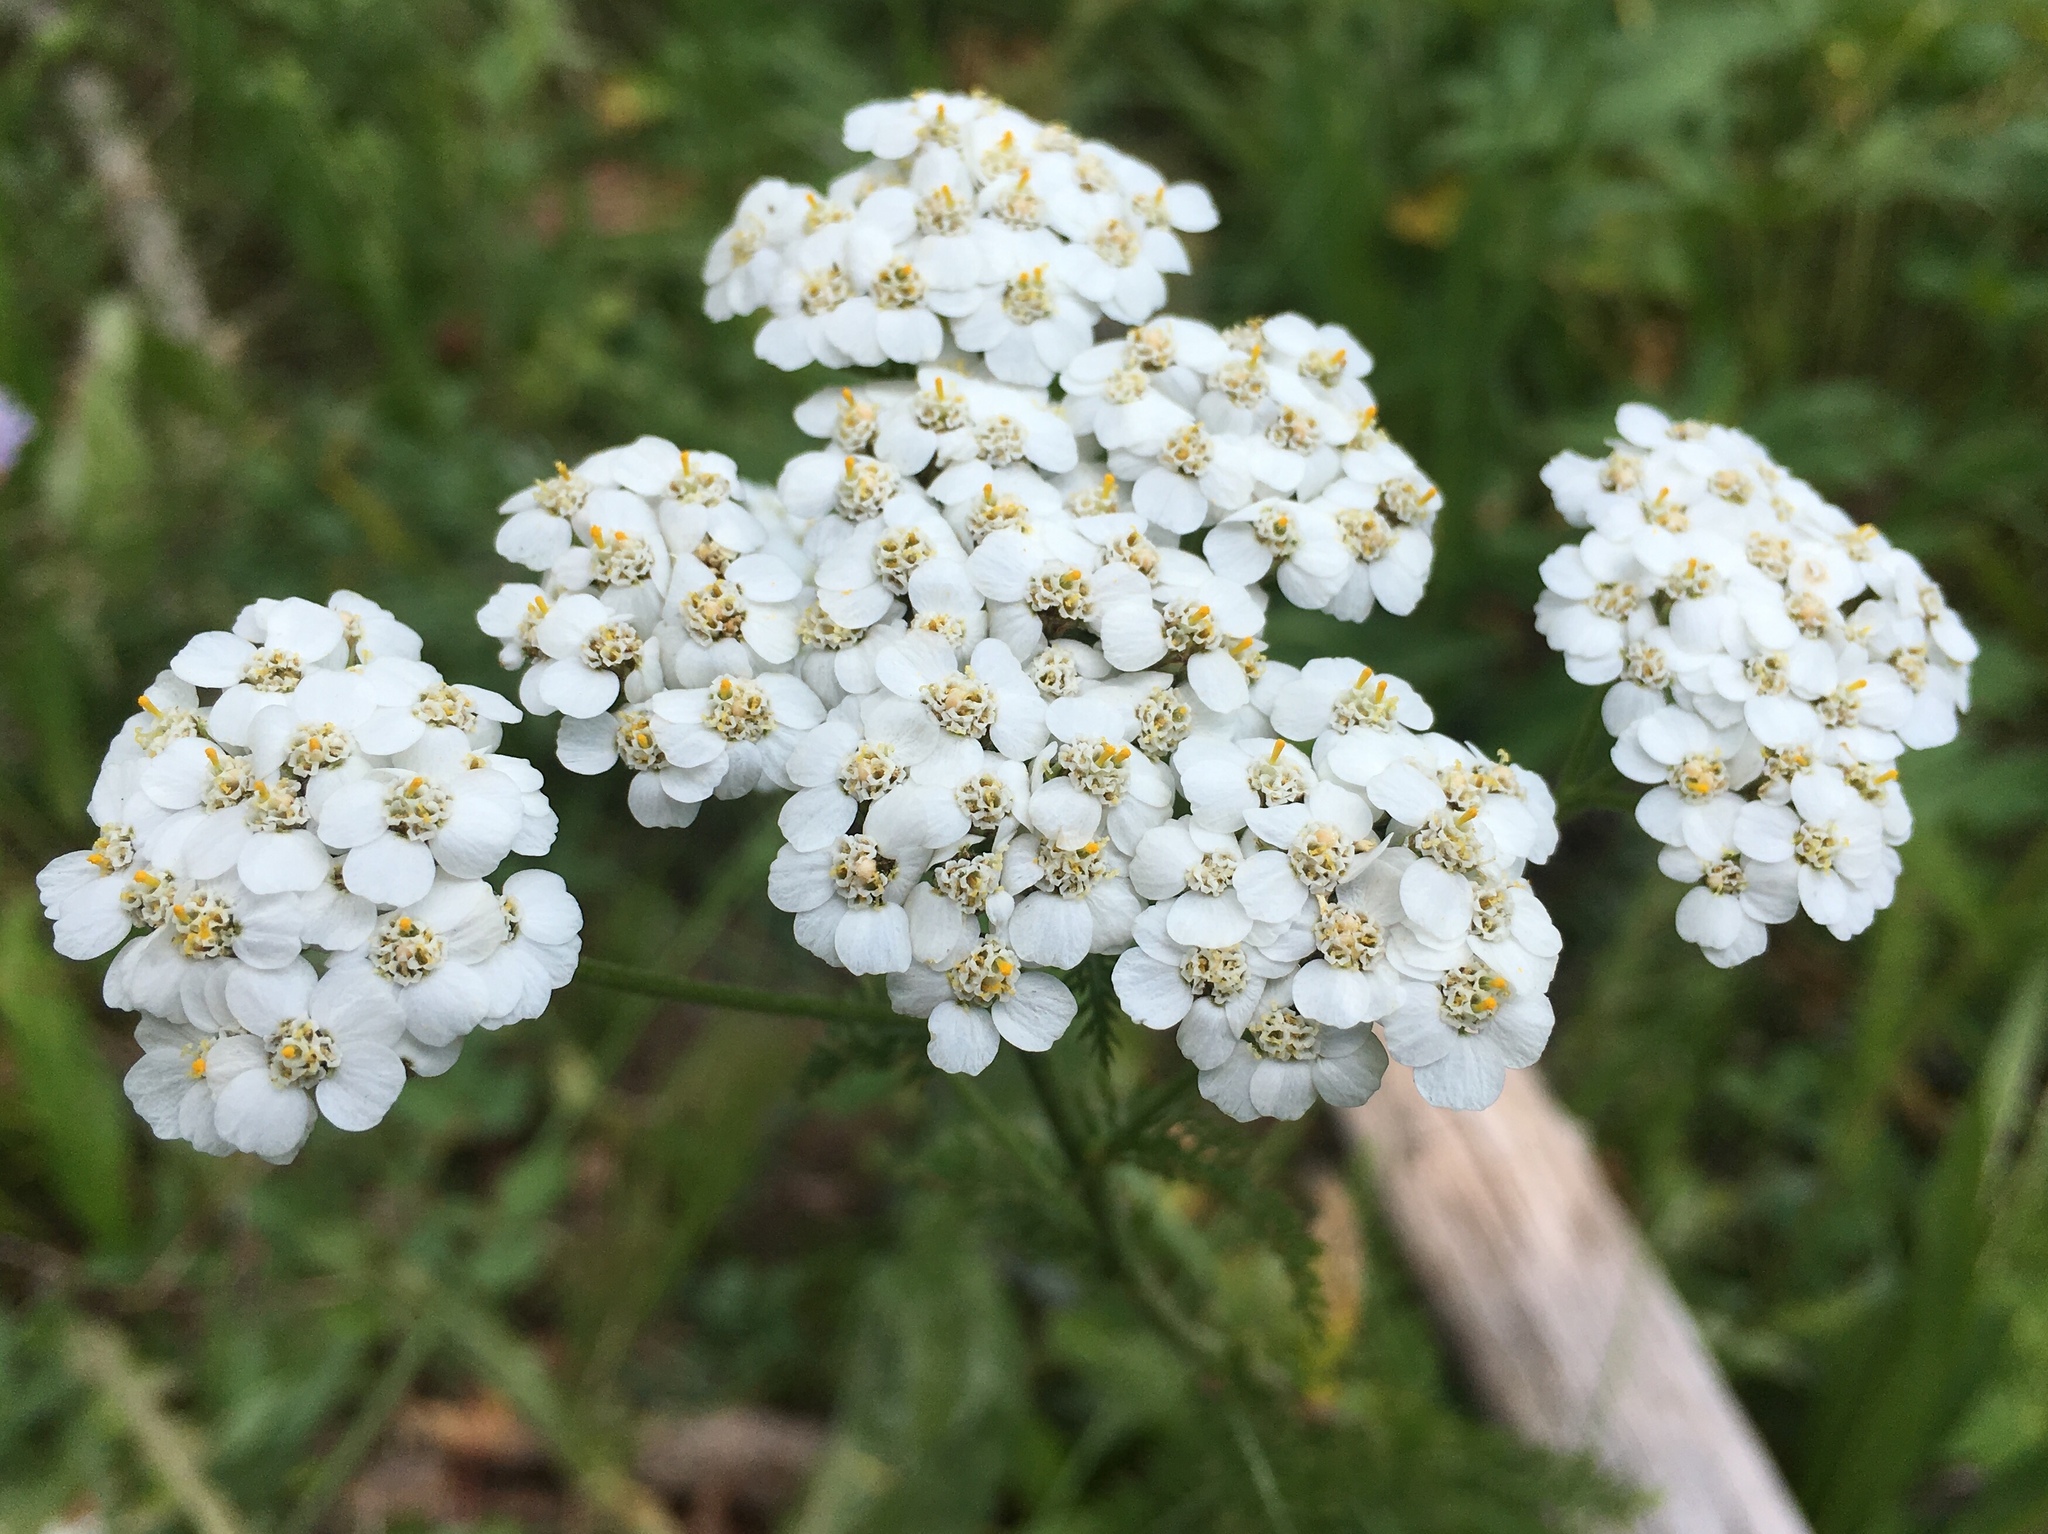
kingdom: Plantae
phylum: Tracheophyta
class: Magnoliopsida
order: Asterales
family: Asteraceae
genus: Achillea
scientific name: Achillea millefolium
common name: Yarrow
